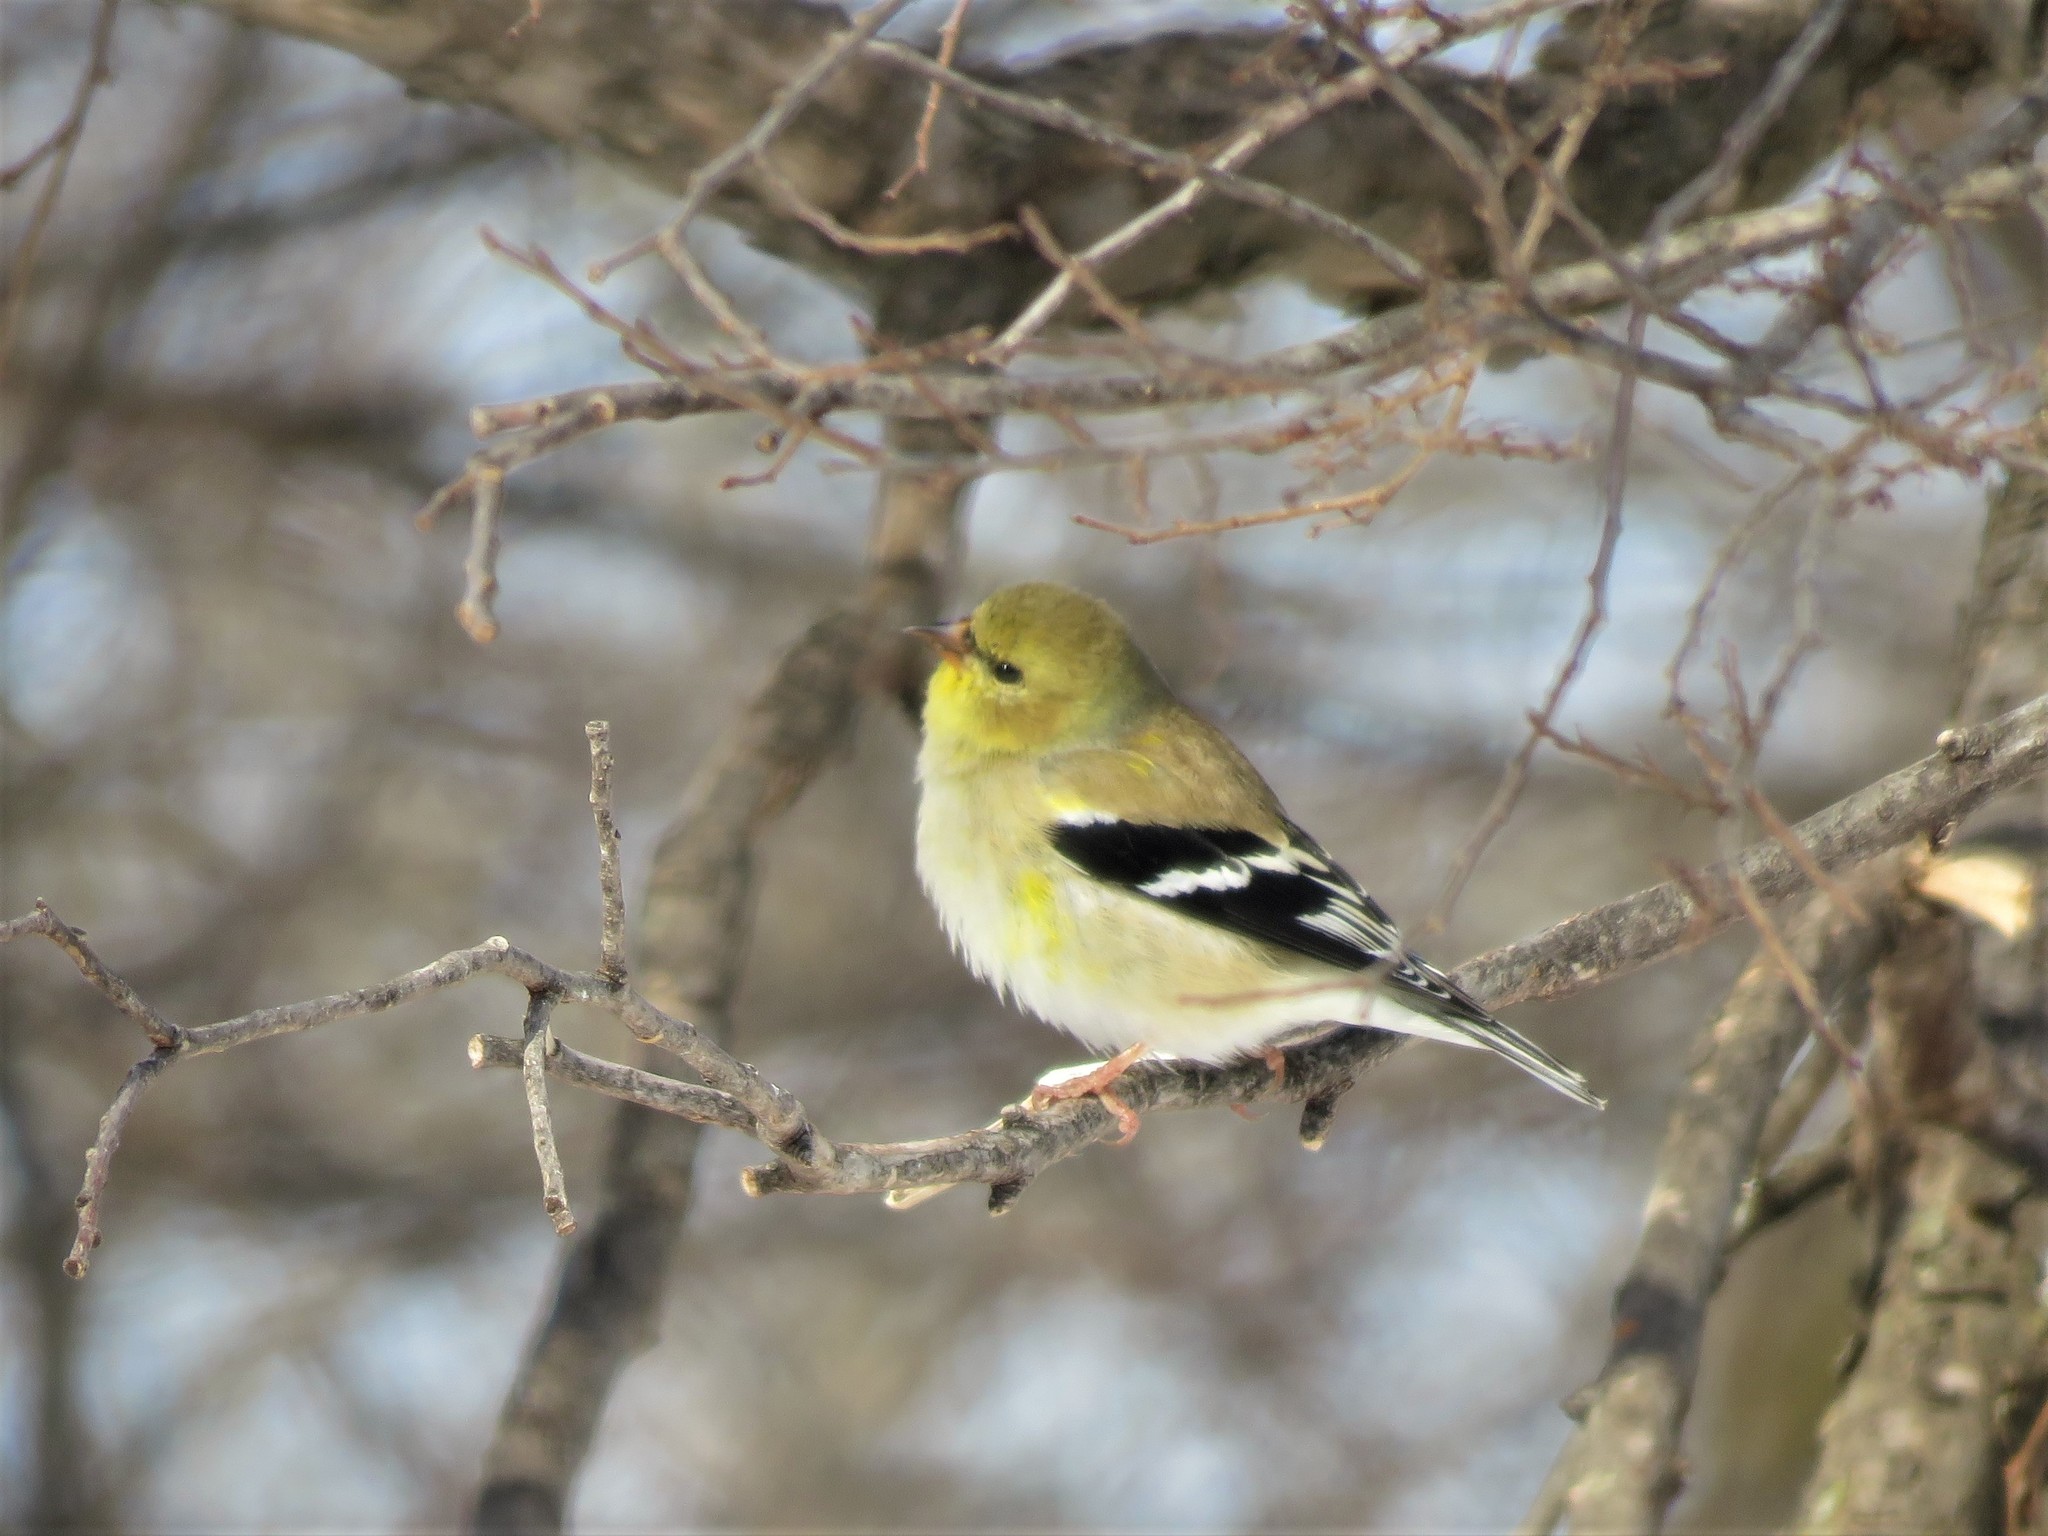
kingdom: Animalia
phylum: Chordata
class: Aves
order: Passeriformes
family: Fringillidae
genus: Spinus
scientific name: Spinus tristis
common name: American goldfinch
